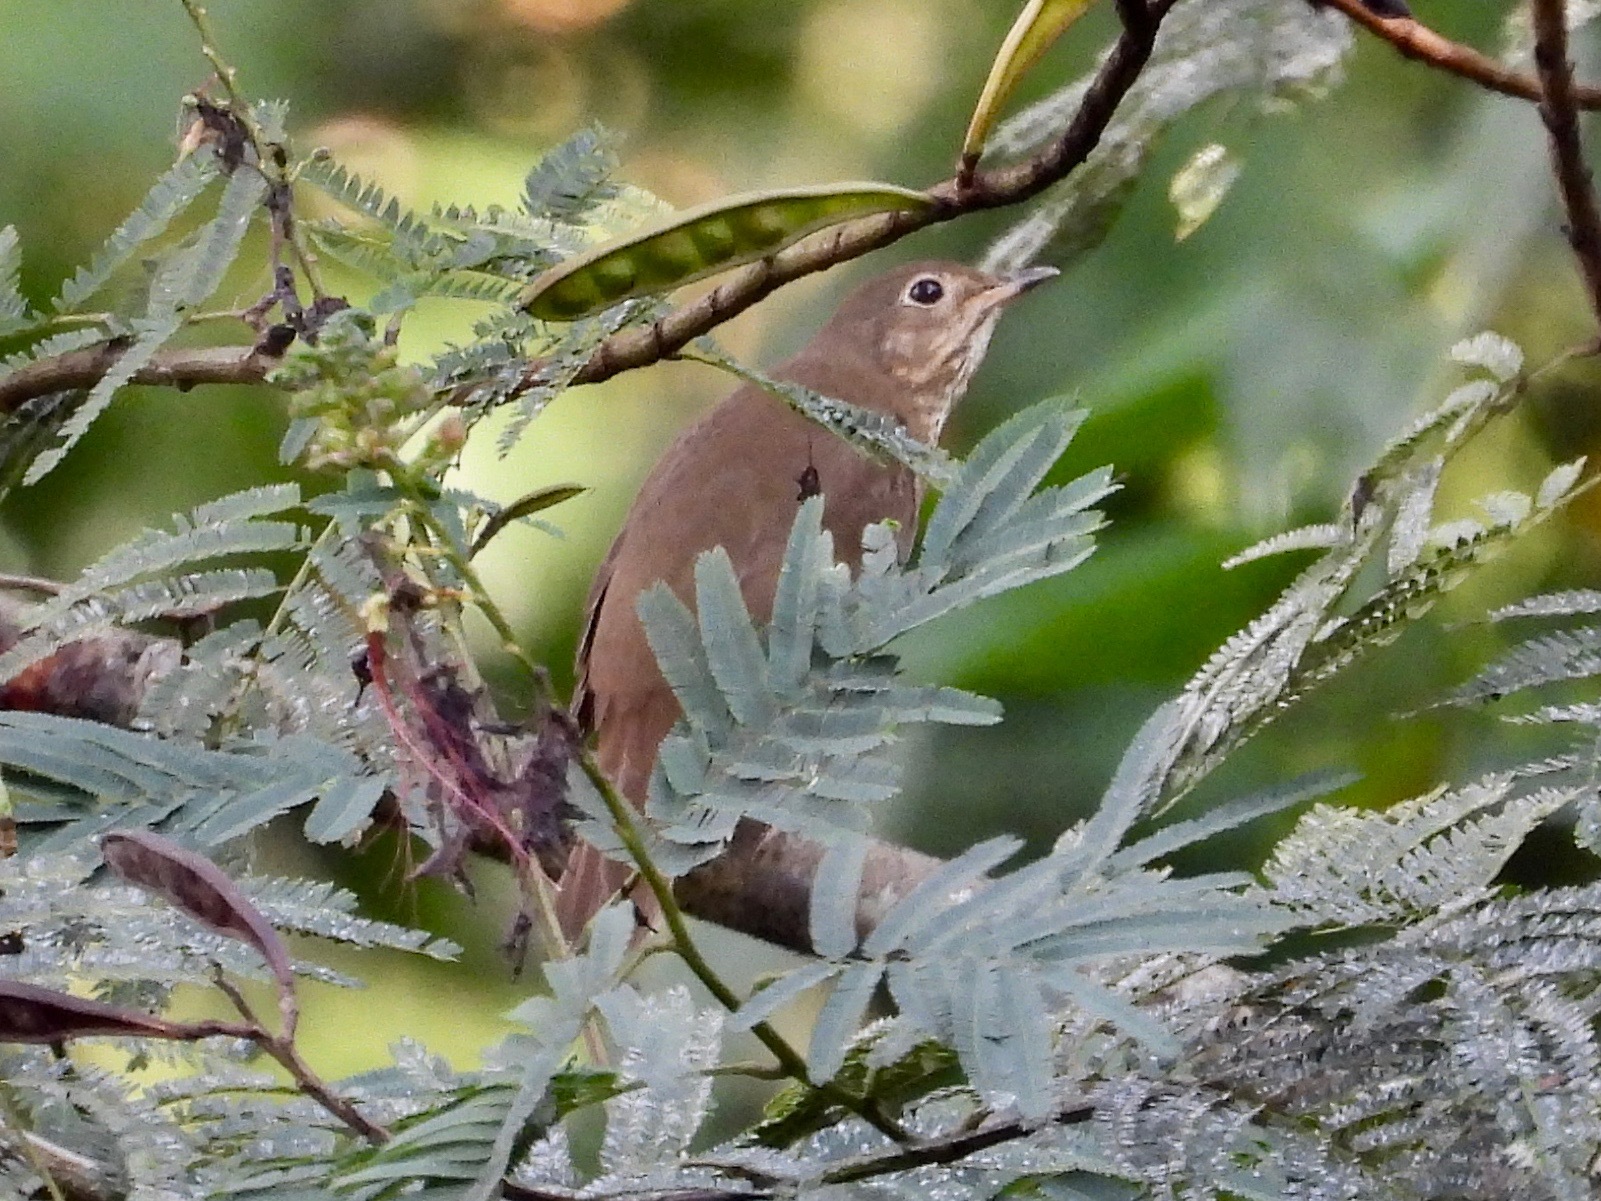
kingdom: Animalia
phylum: Chordata
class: Aves
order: Passeriformes
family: Turdidae
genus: Catharus
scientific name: Catharus ustulatus
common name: Swainson's thrush
